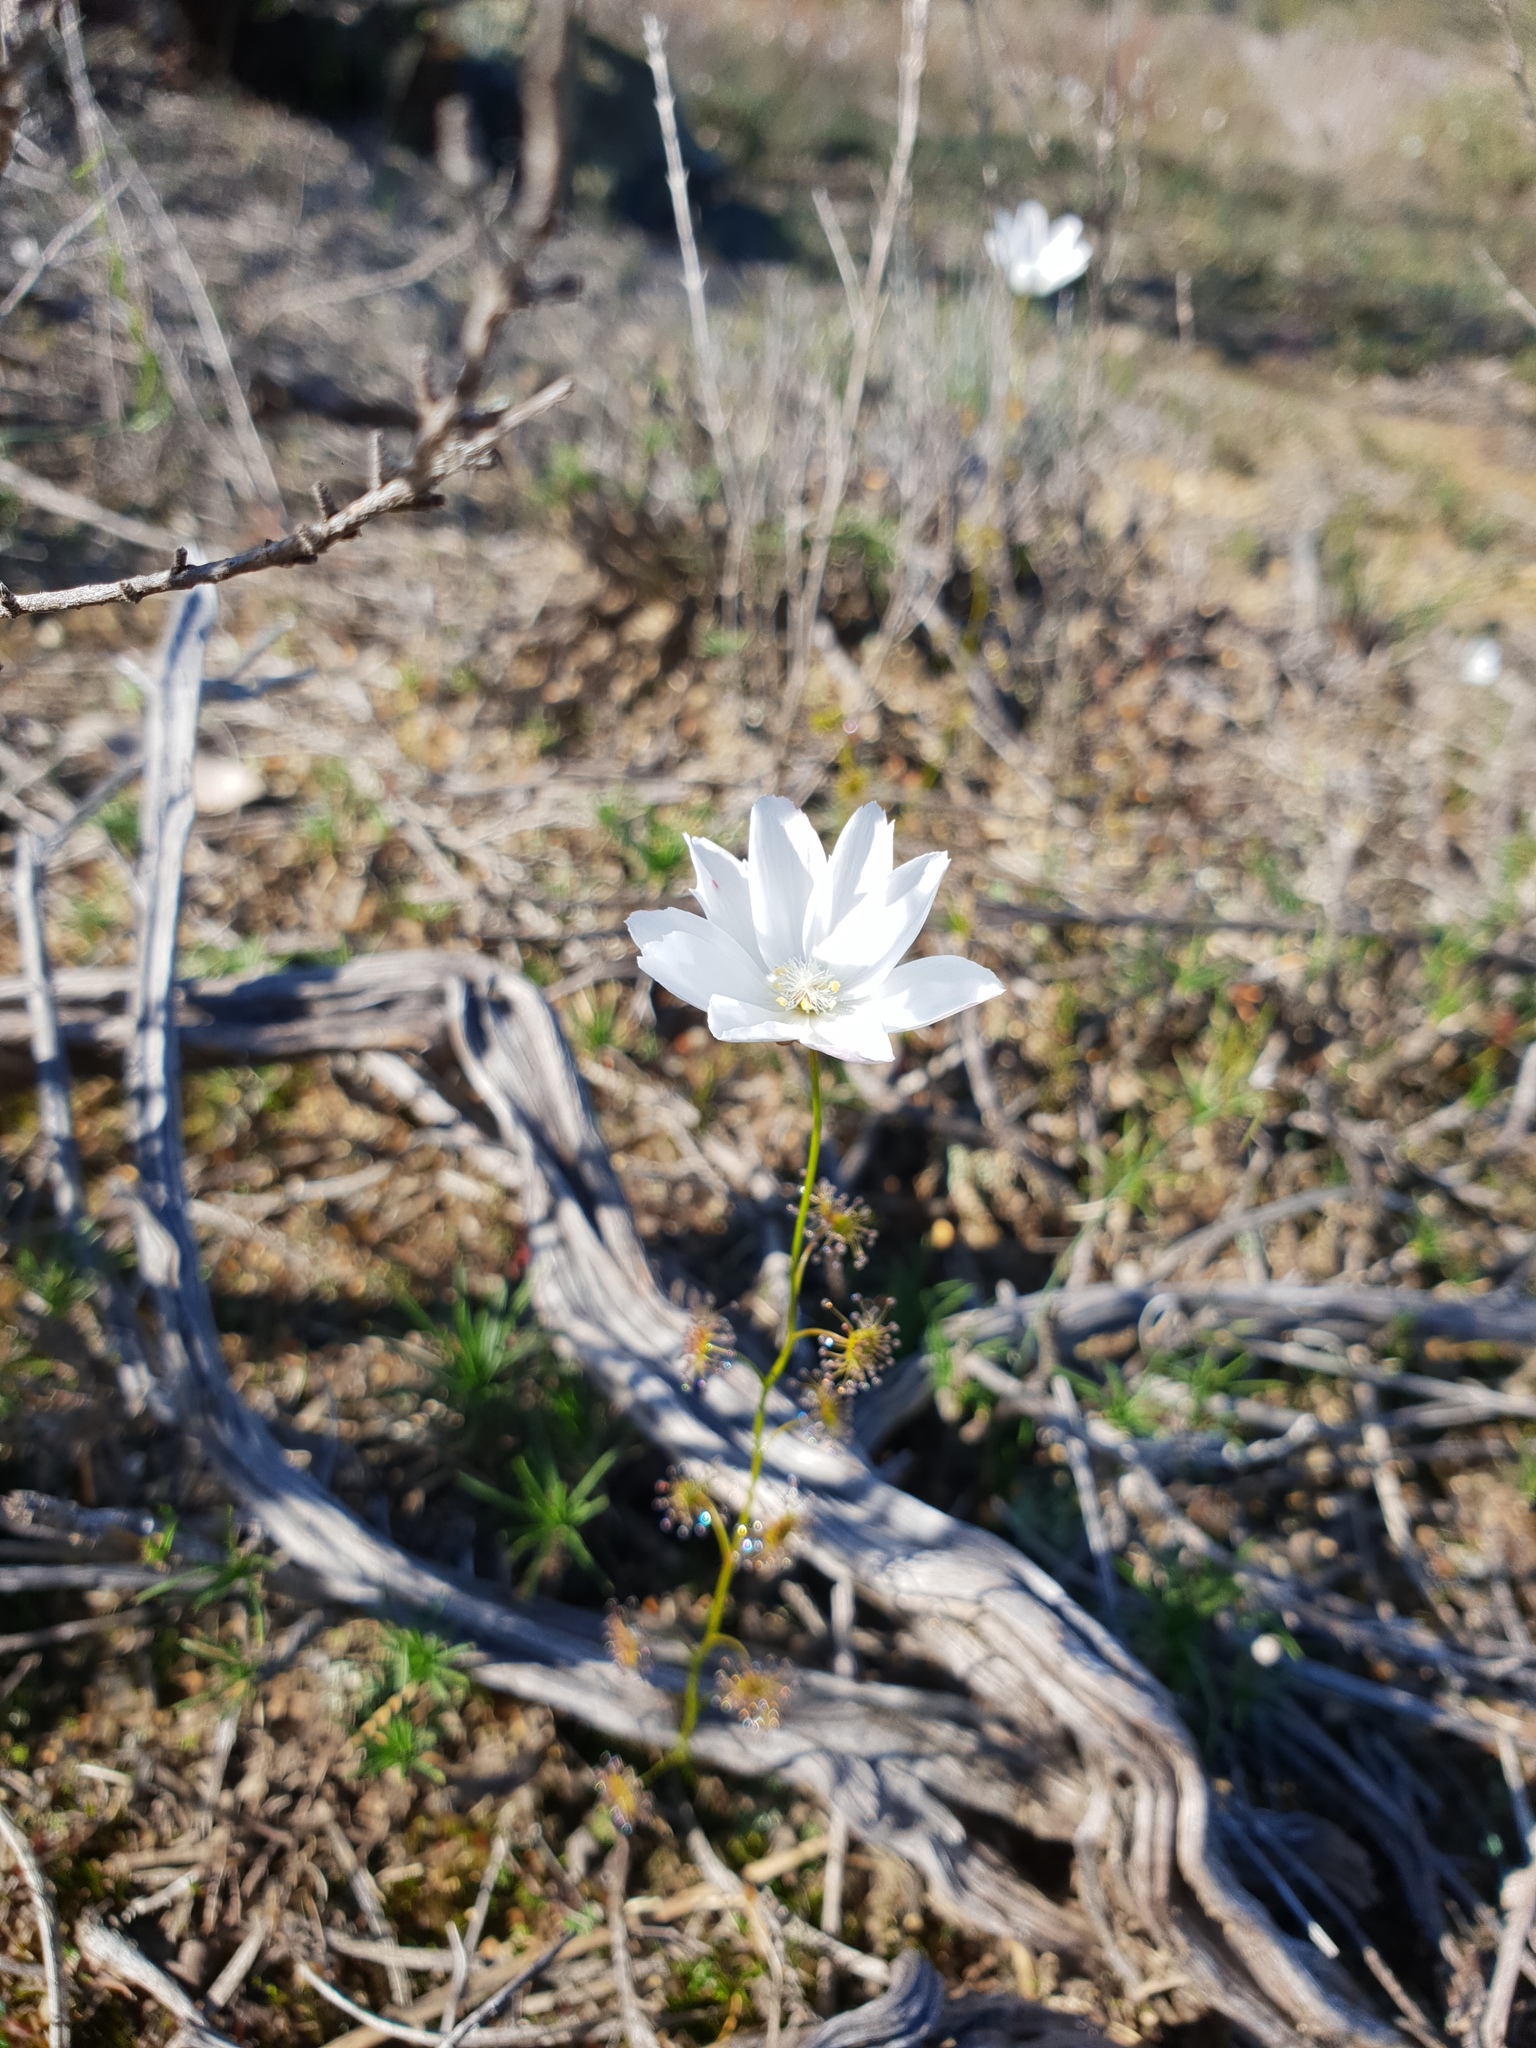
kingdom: Plantae
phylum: Tracheophyta
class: Magnoliopsida
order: Caryophyllales
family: Droseraceae
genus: Drosera
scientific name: Drosera heterophylla
